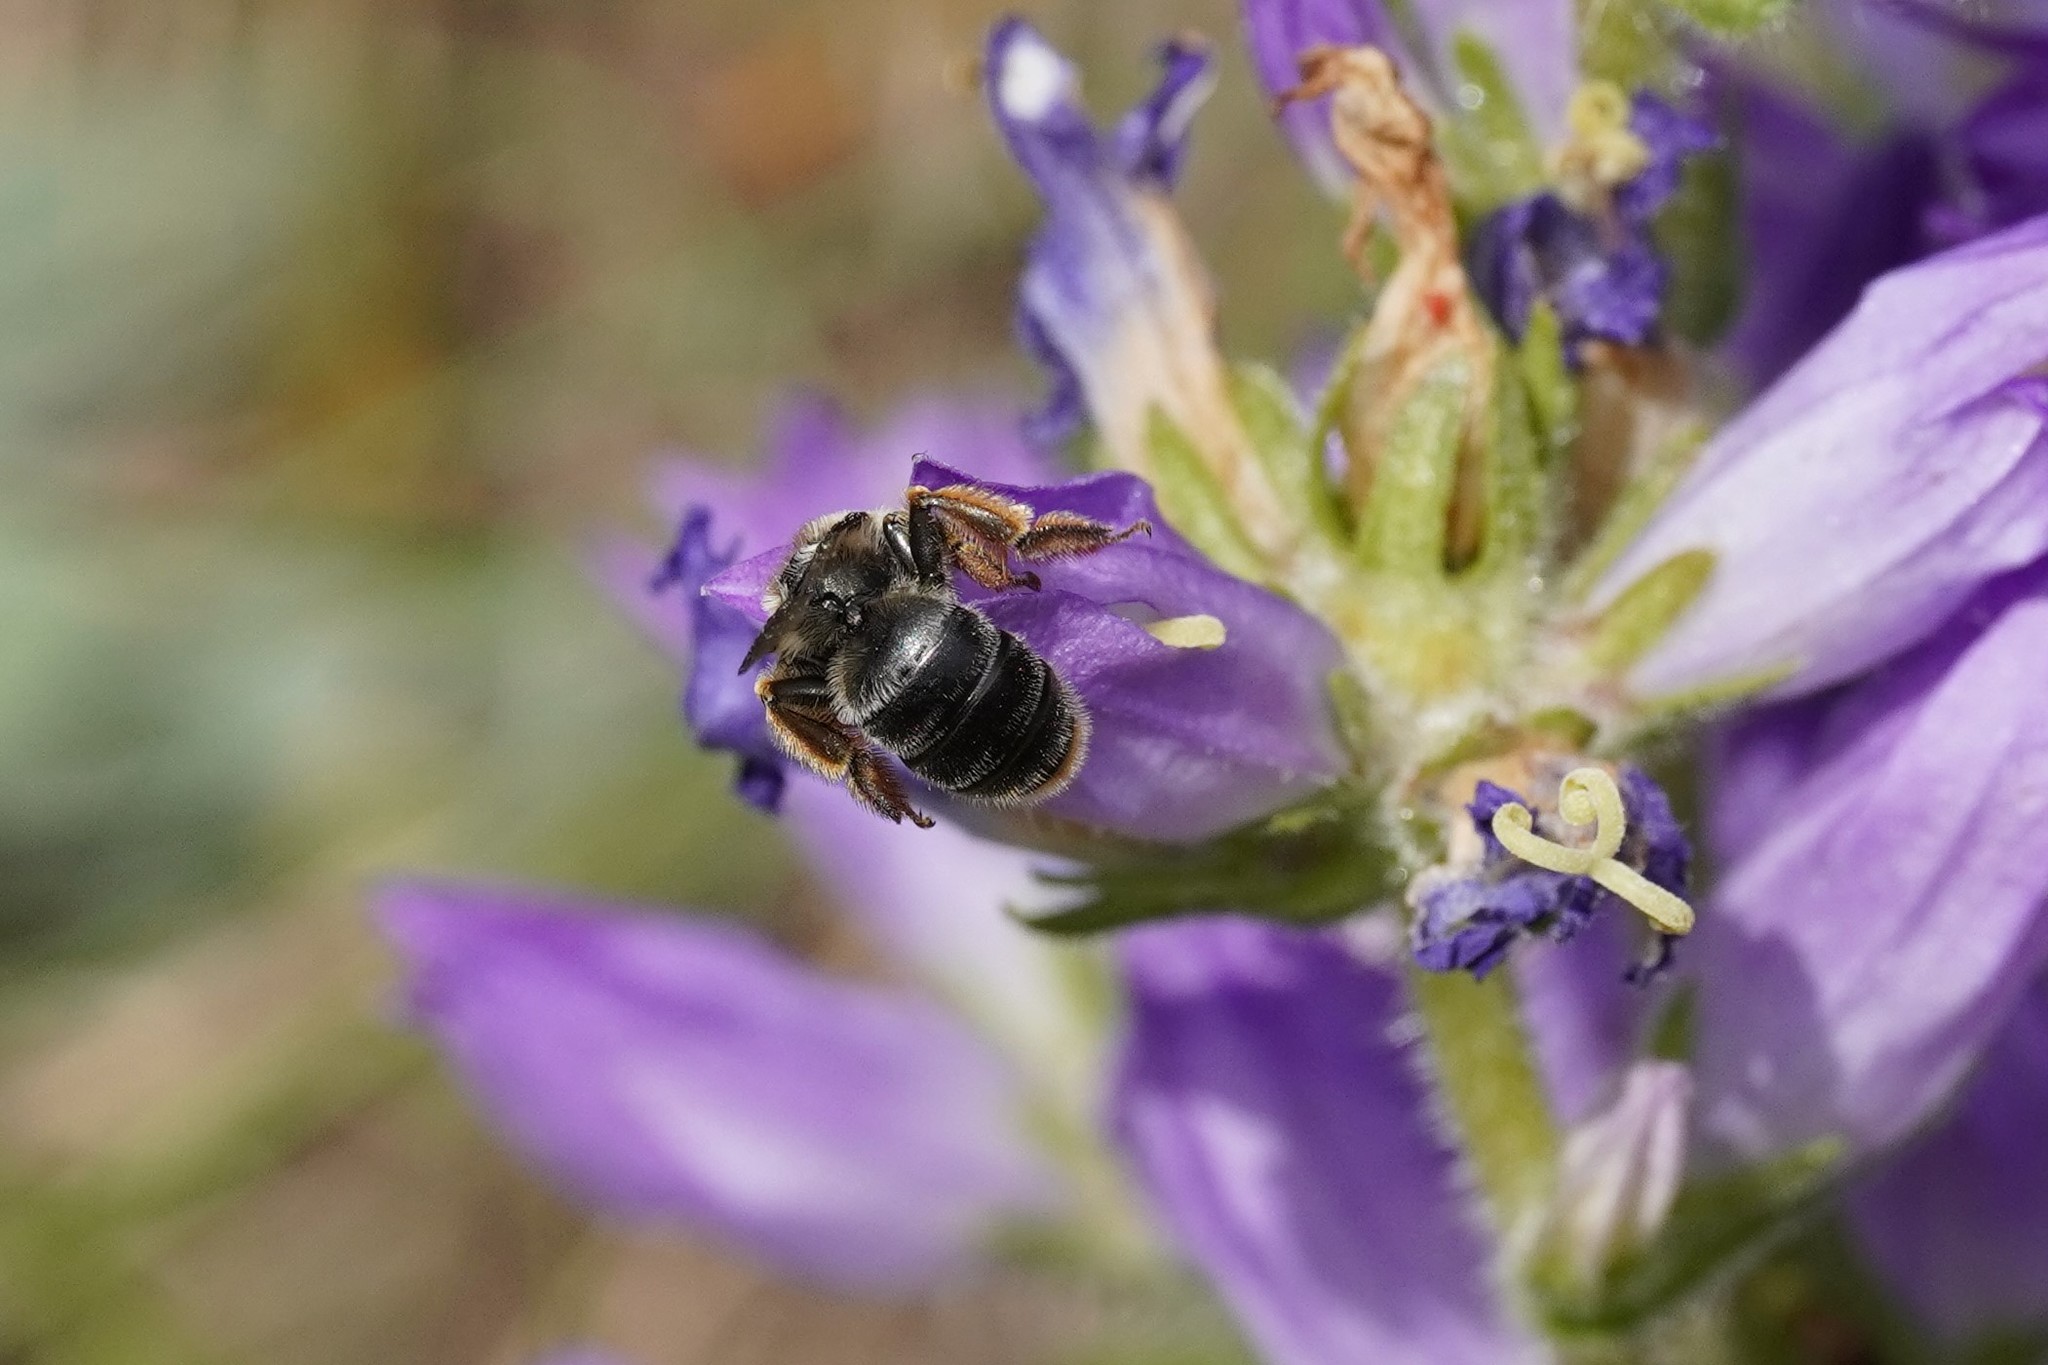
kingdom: Animalia
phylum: Arthropoda
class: Insecta
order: Hymenoptera
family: Melittidae
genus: Melitta
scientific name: Melitta haemorrhoidalis
